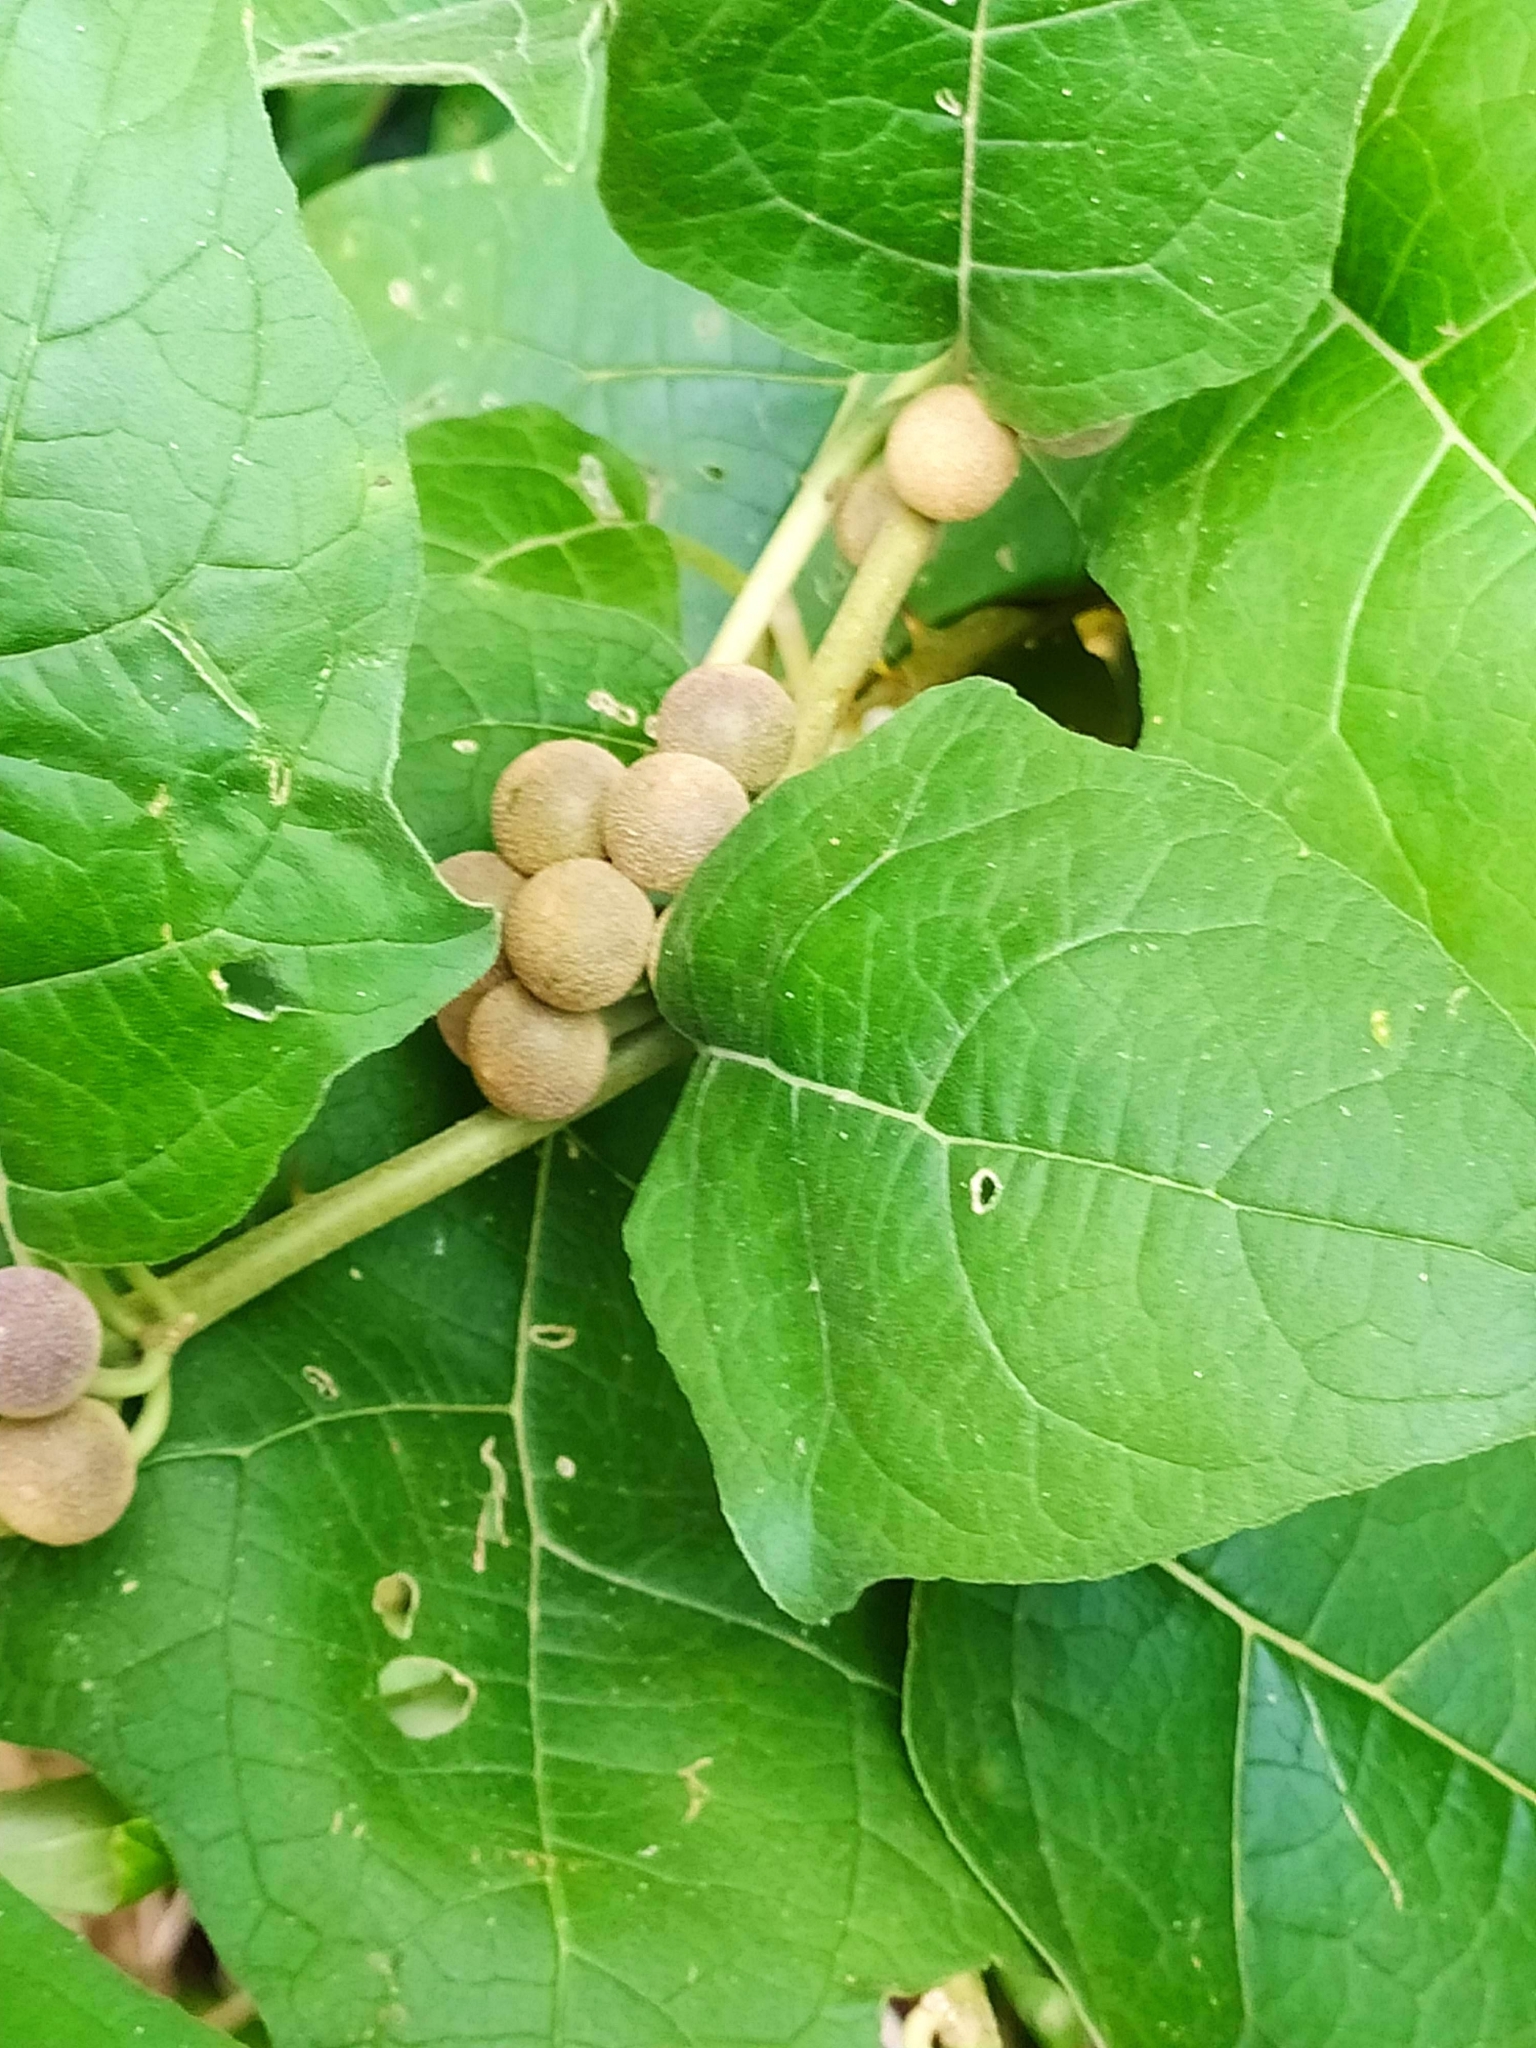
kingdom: Plantae
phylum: Tracheophyta
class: Magnoliopsida
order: Solanales
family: Solanaceae
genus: Solanum
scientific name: Solanum
